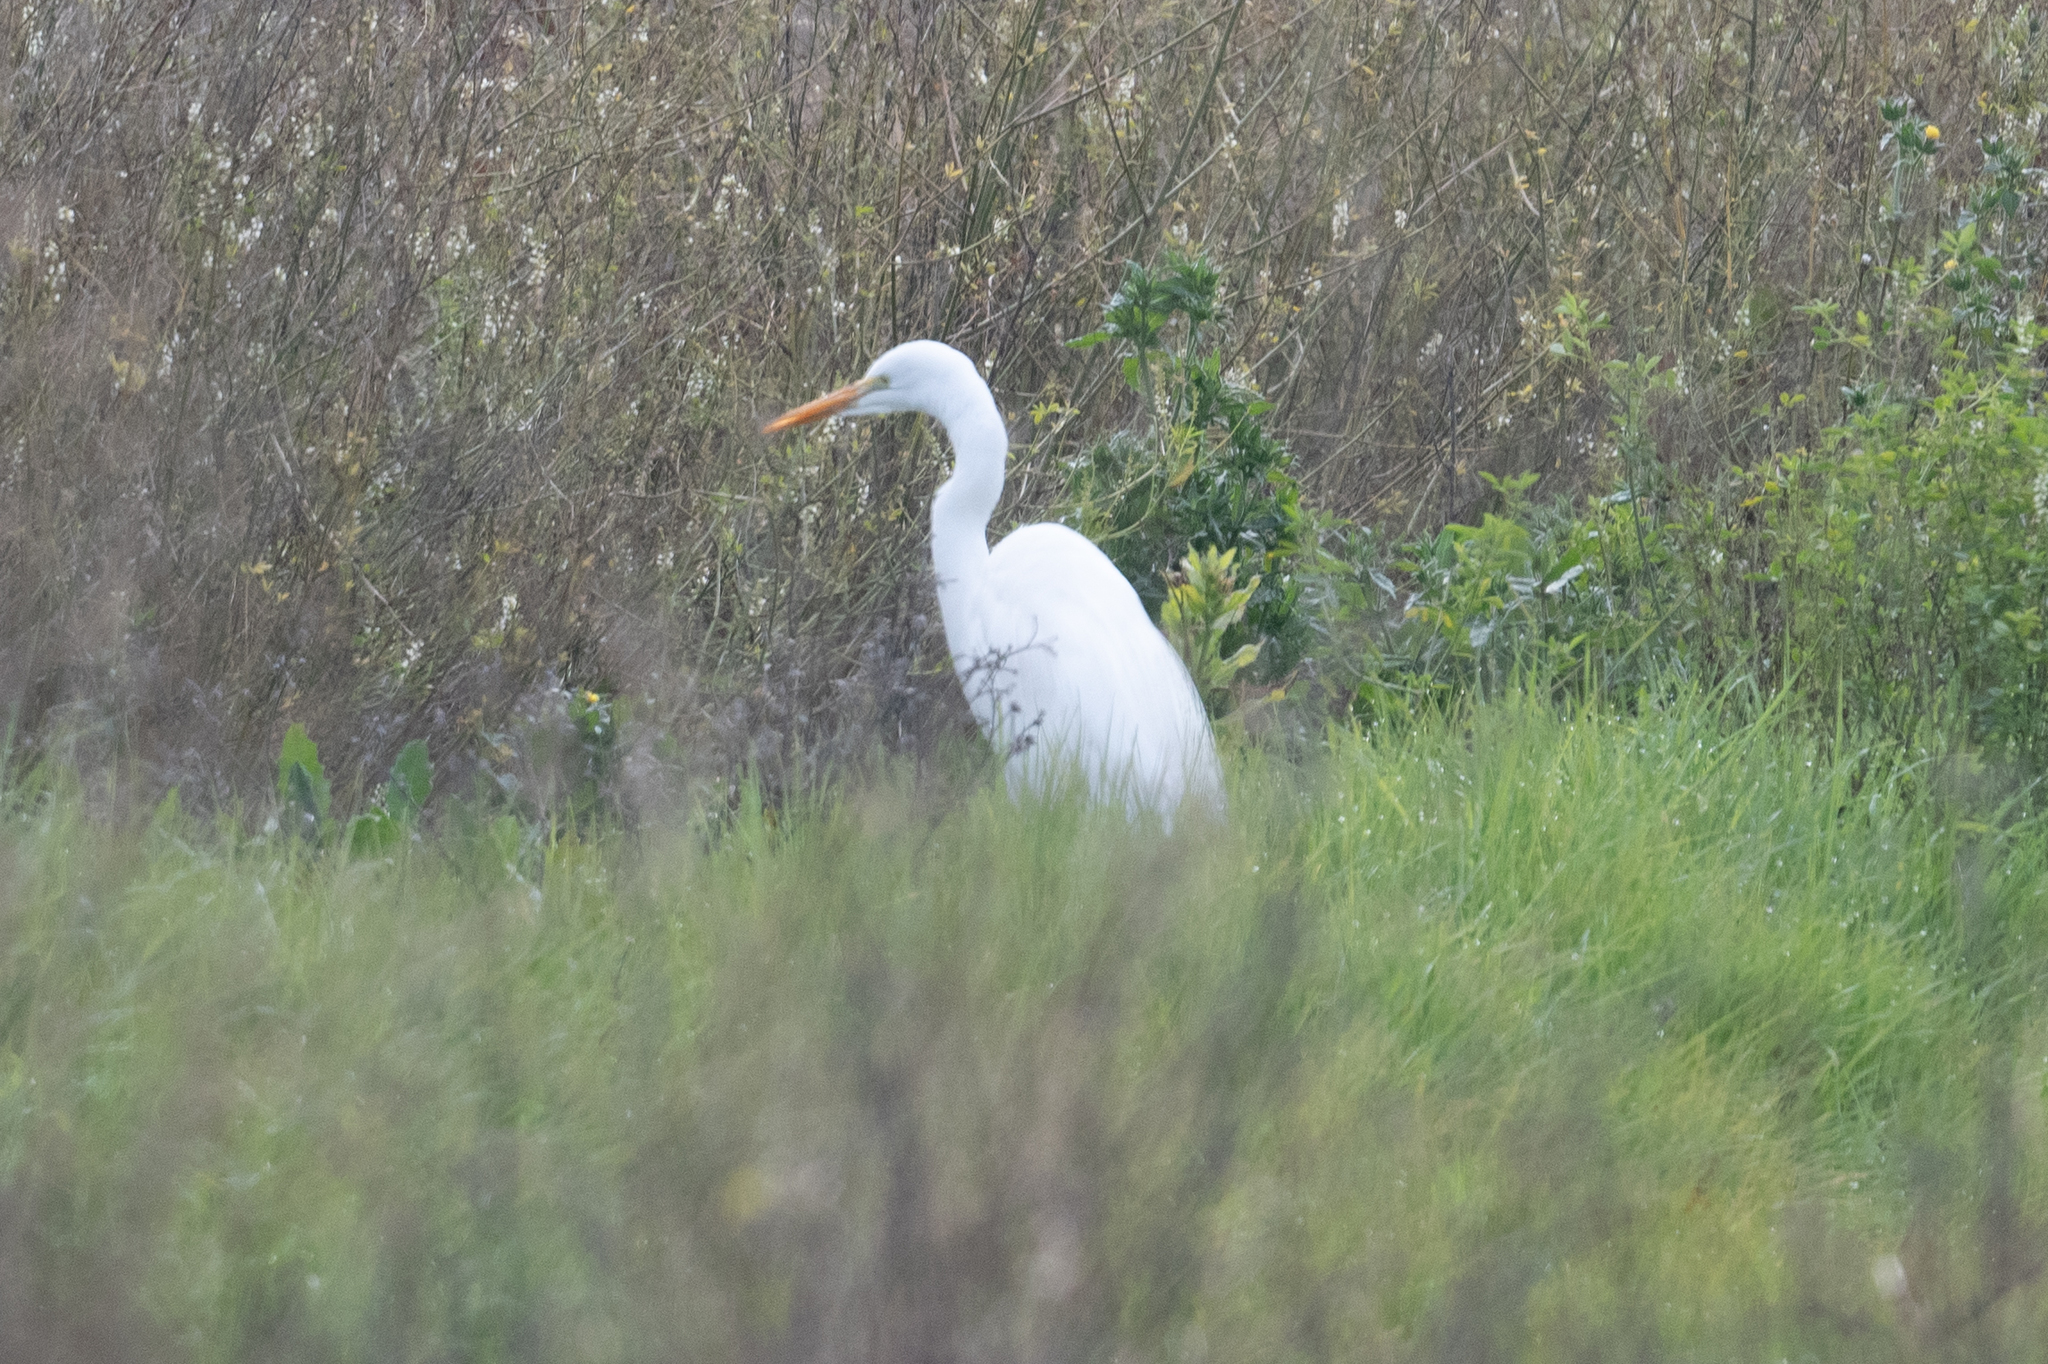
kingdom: Animalia
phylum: Chordata
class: Aves
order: Pelecaniformes
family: Ardeidae
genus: Ardea
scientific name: Ardea alba
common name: Great egret
